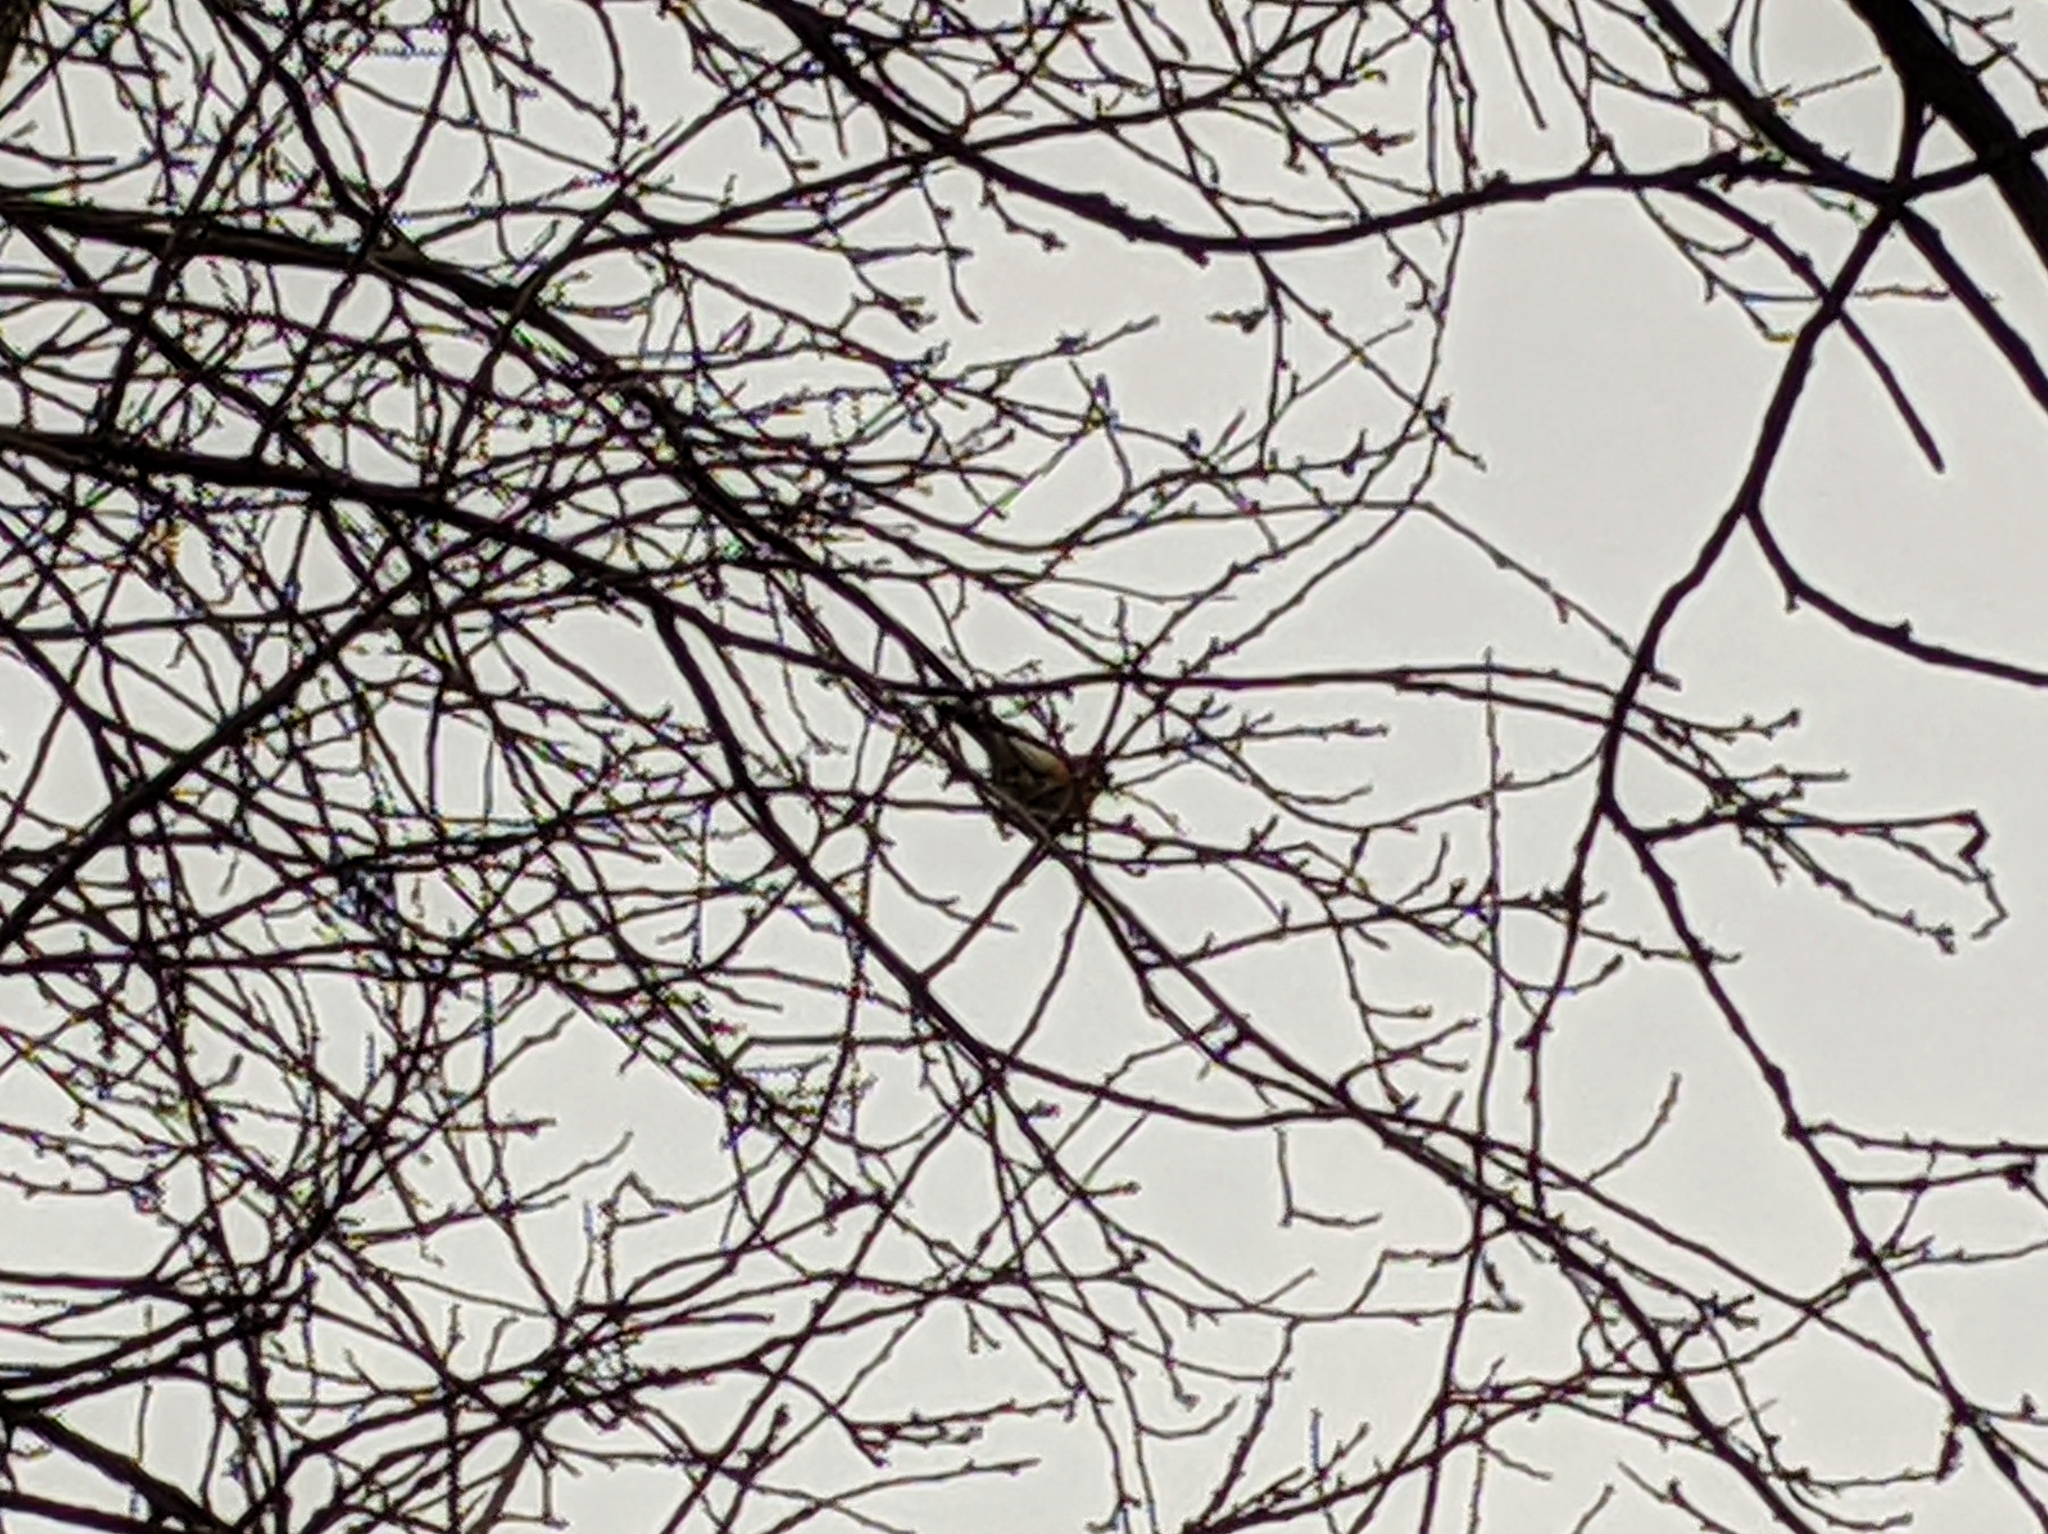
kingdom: Animalia
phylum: Chordata
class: Aves
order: Passeriformes
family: Fringillidae
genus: Pyrrhula
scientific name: Pyrrhula pyrrhula
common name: Eurasian bullfinch
